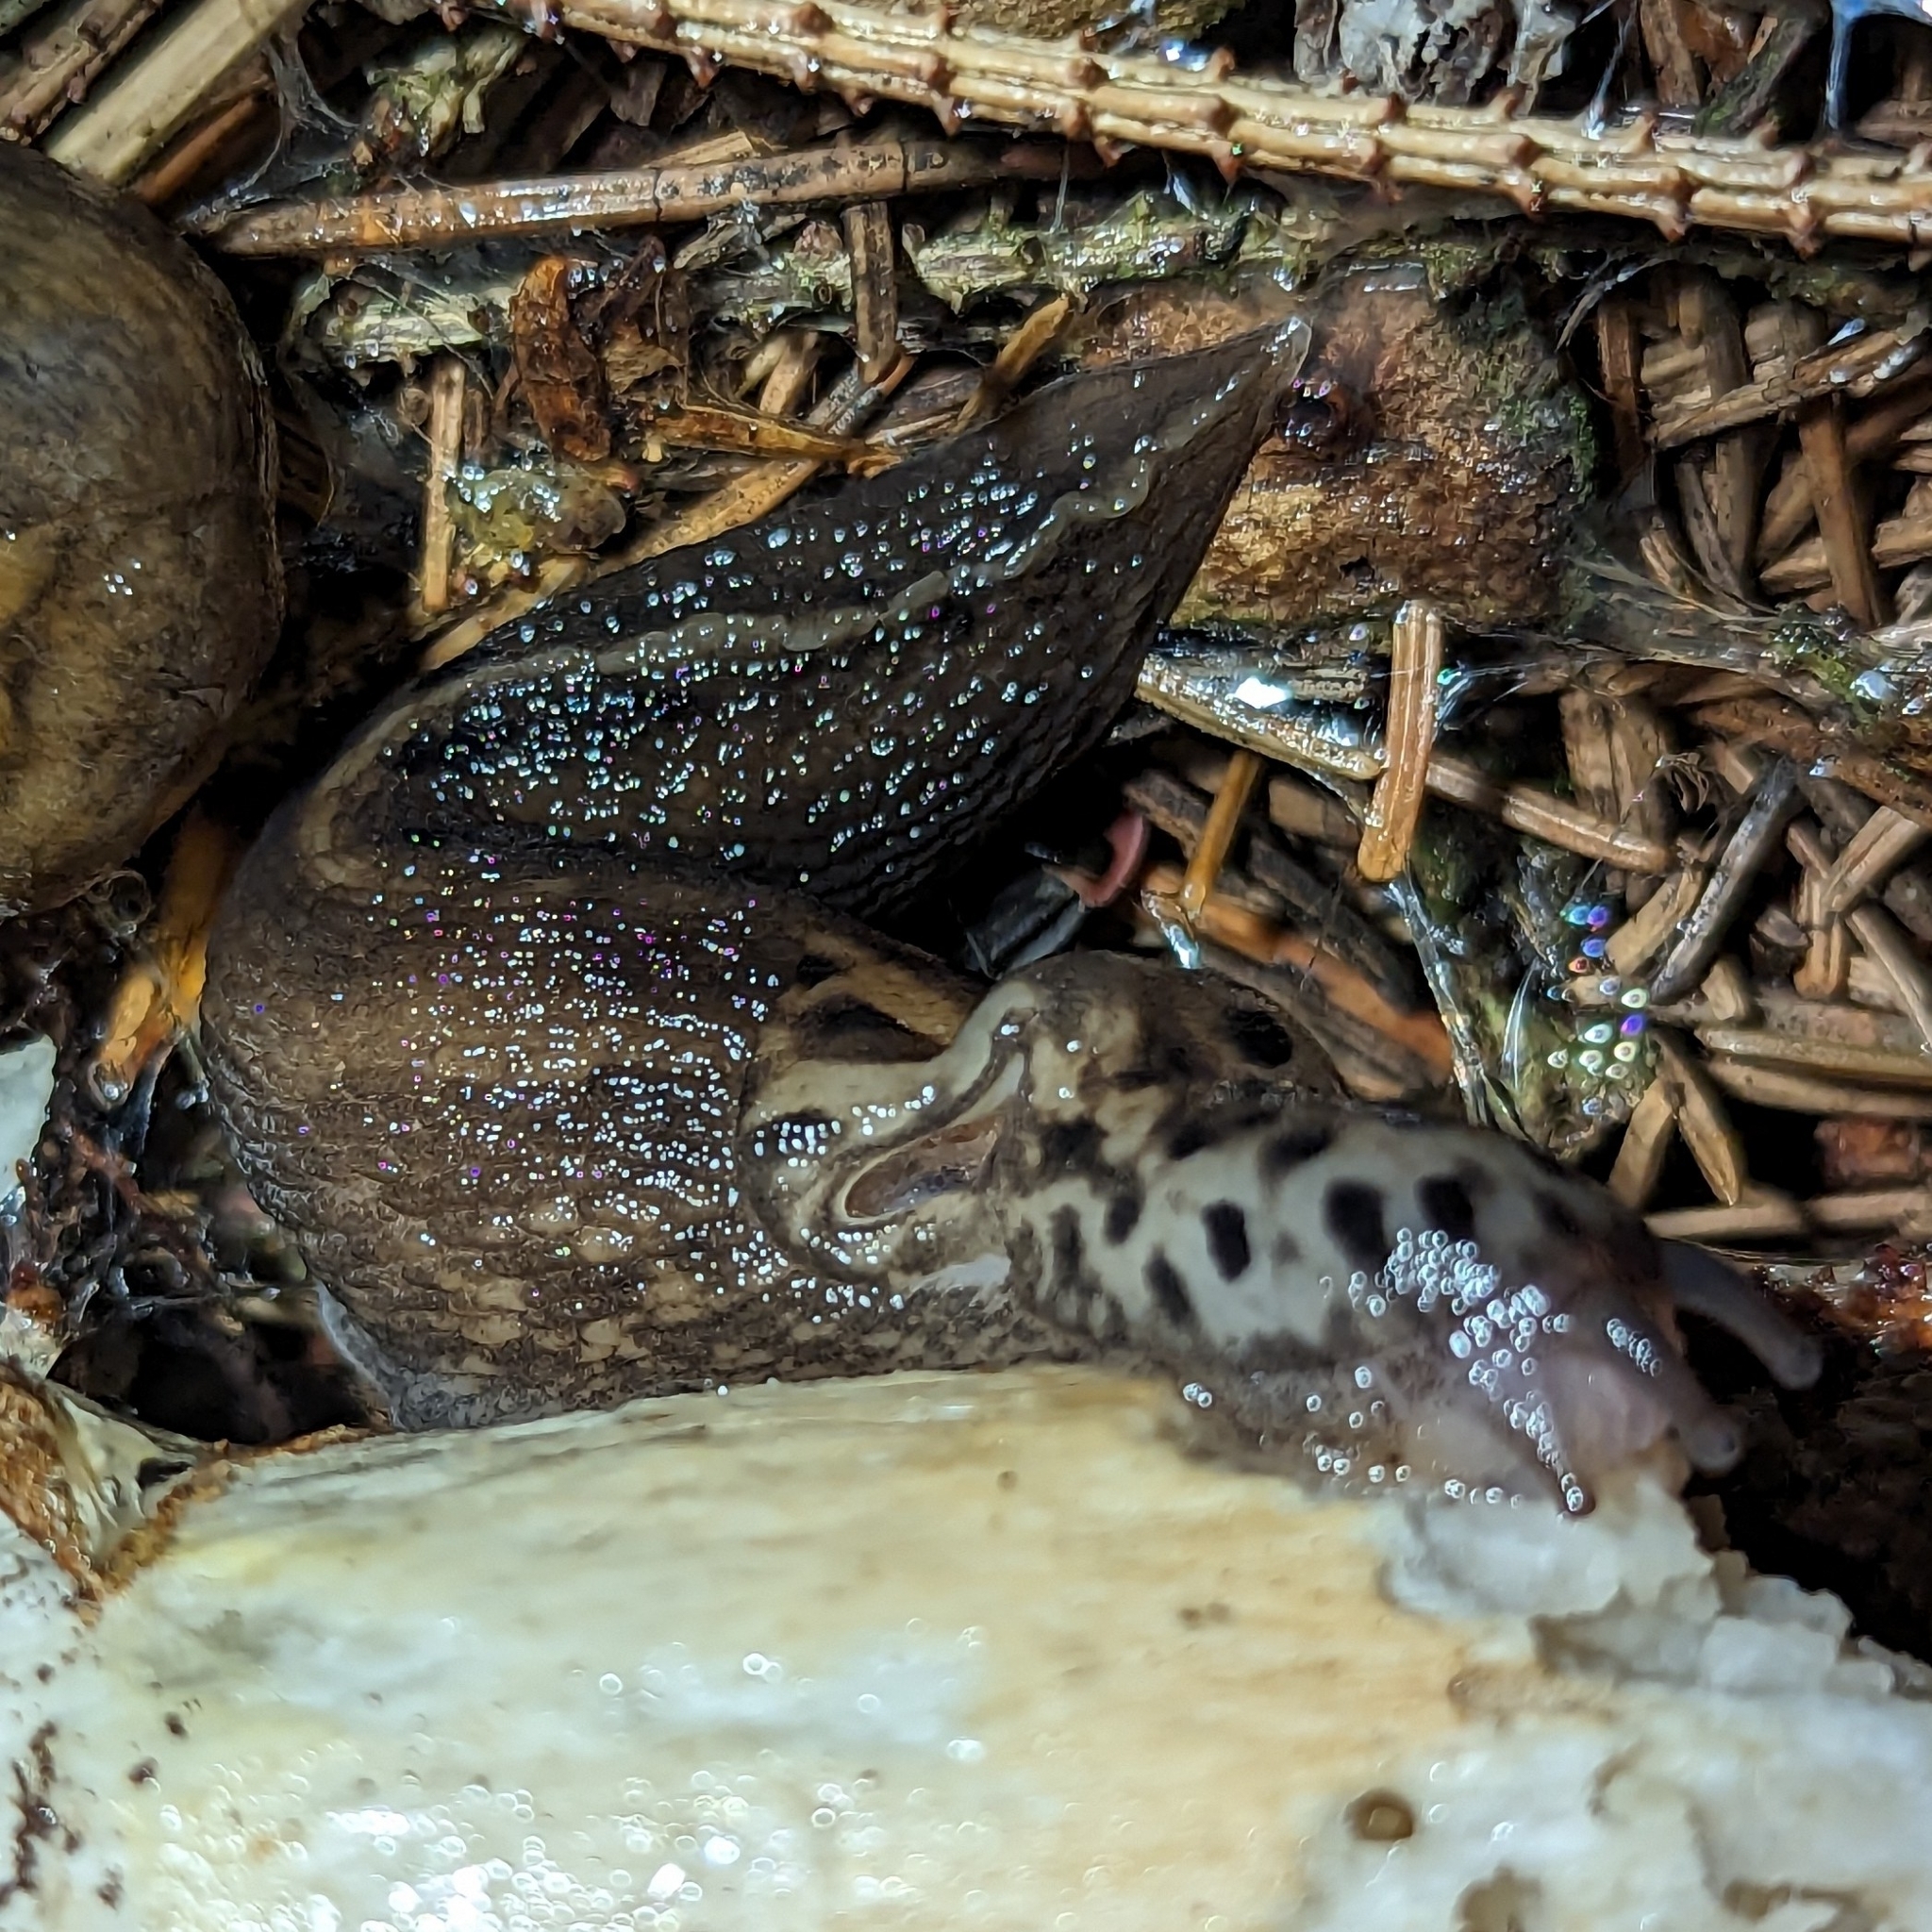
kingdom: Animalia
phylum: Mollusca
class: Gastropoda
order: Stylommatophora
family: Limacidae
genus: Limax
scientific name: Limax maximus
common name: Great grey slug
